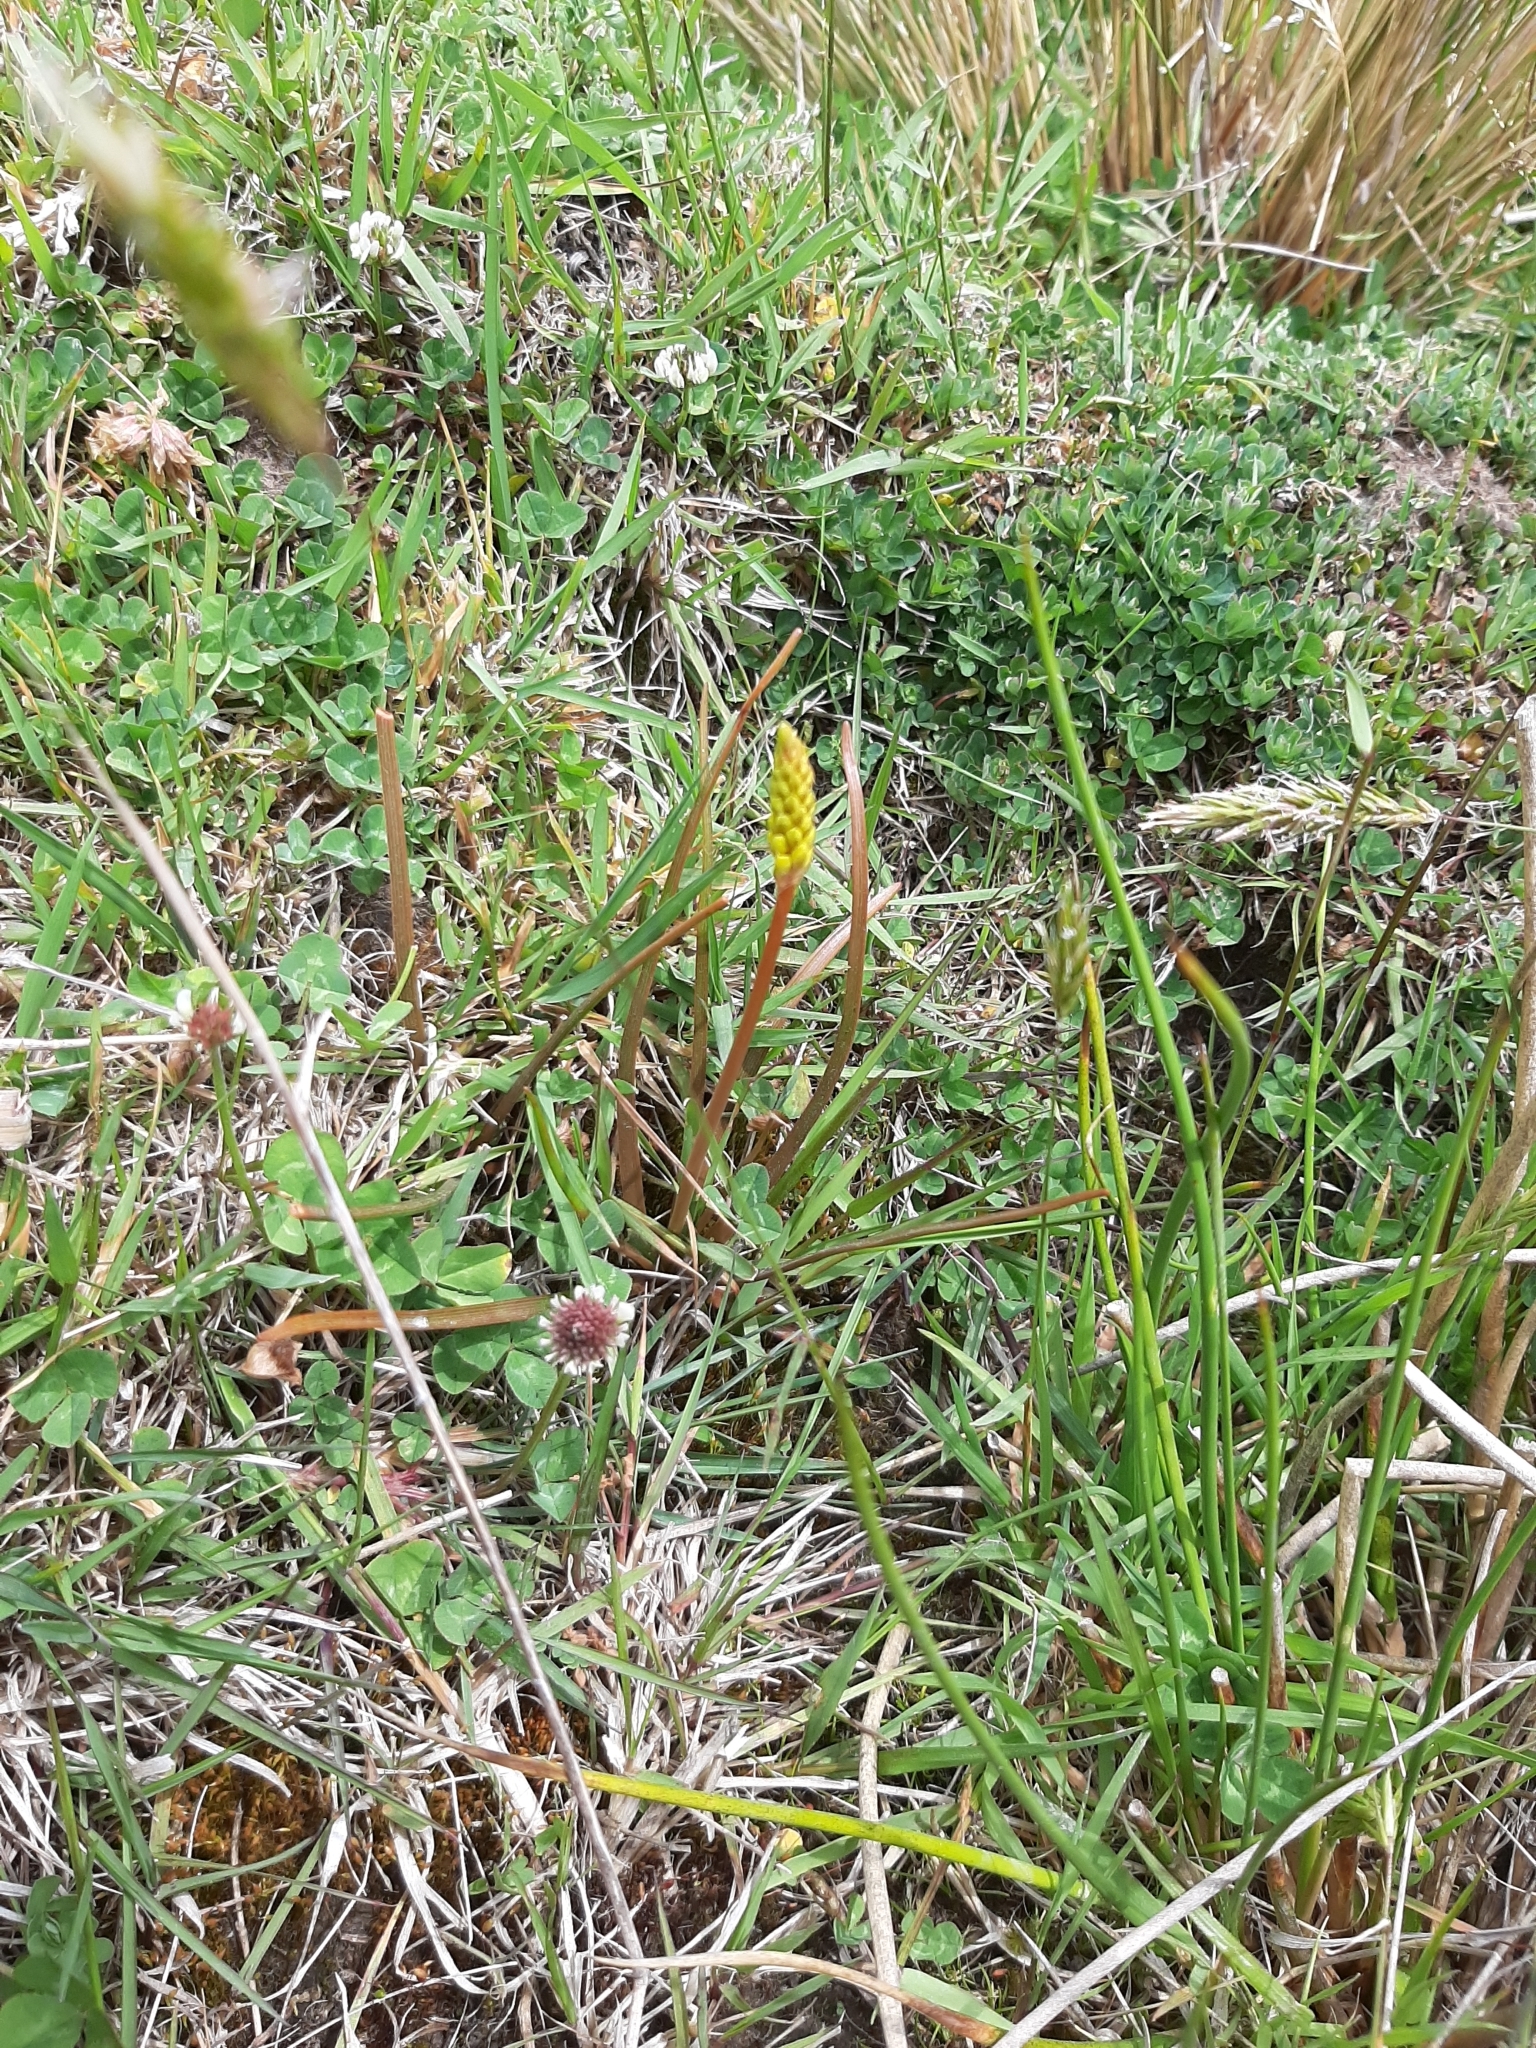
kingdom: Plantae
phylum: Tracheophyta
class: Liliopsida
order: Asparagales
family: Asphodelaceae
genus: Bulbinella
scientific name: Bulbinella angustifolia
